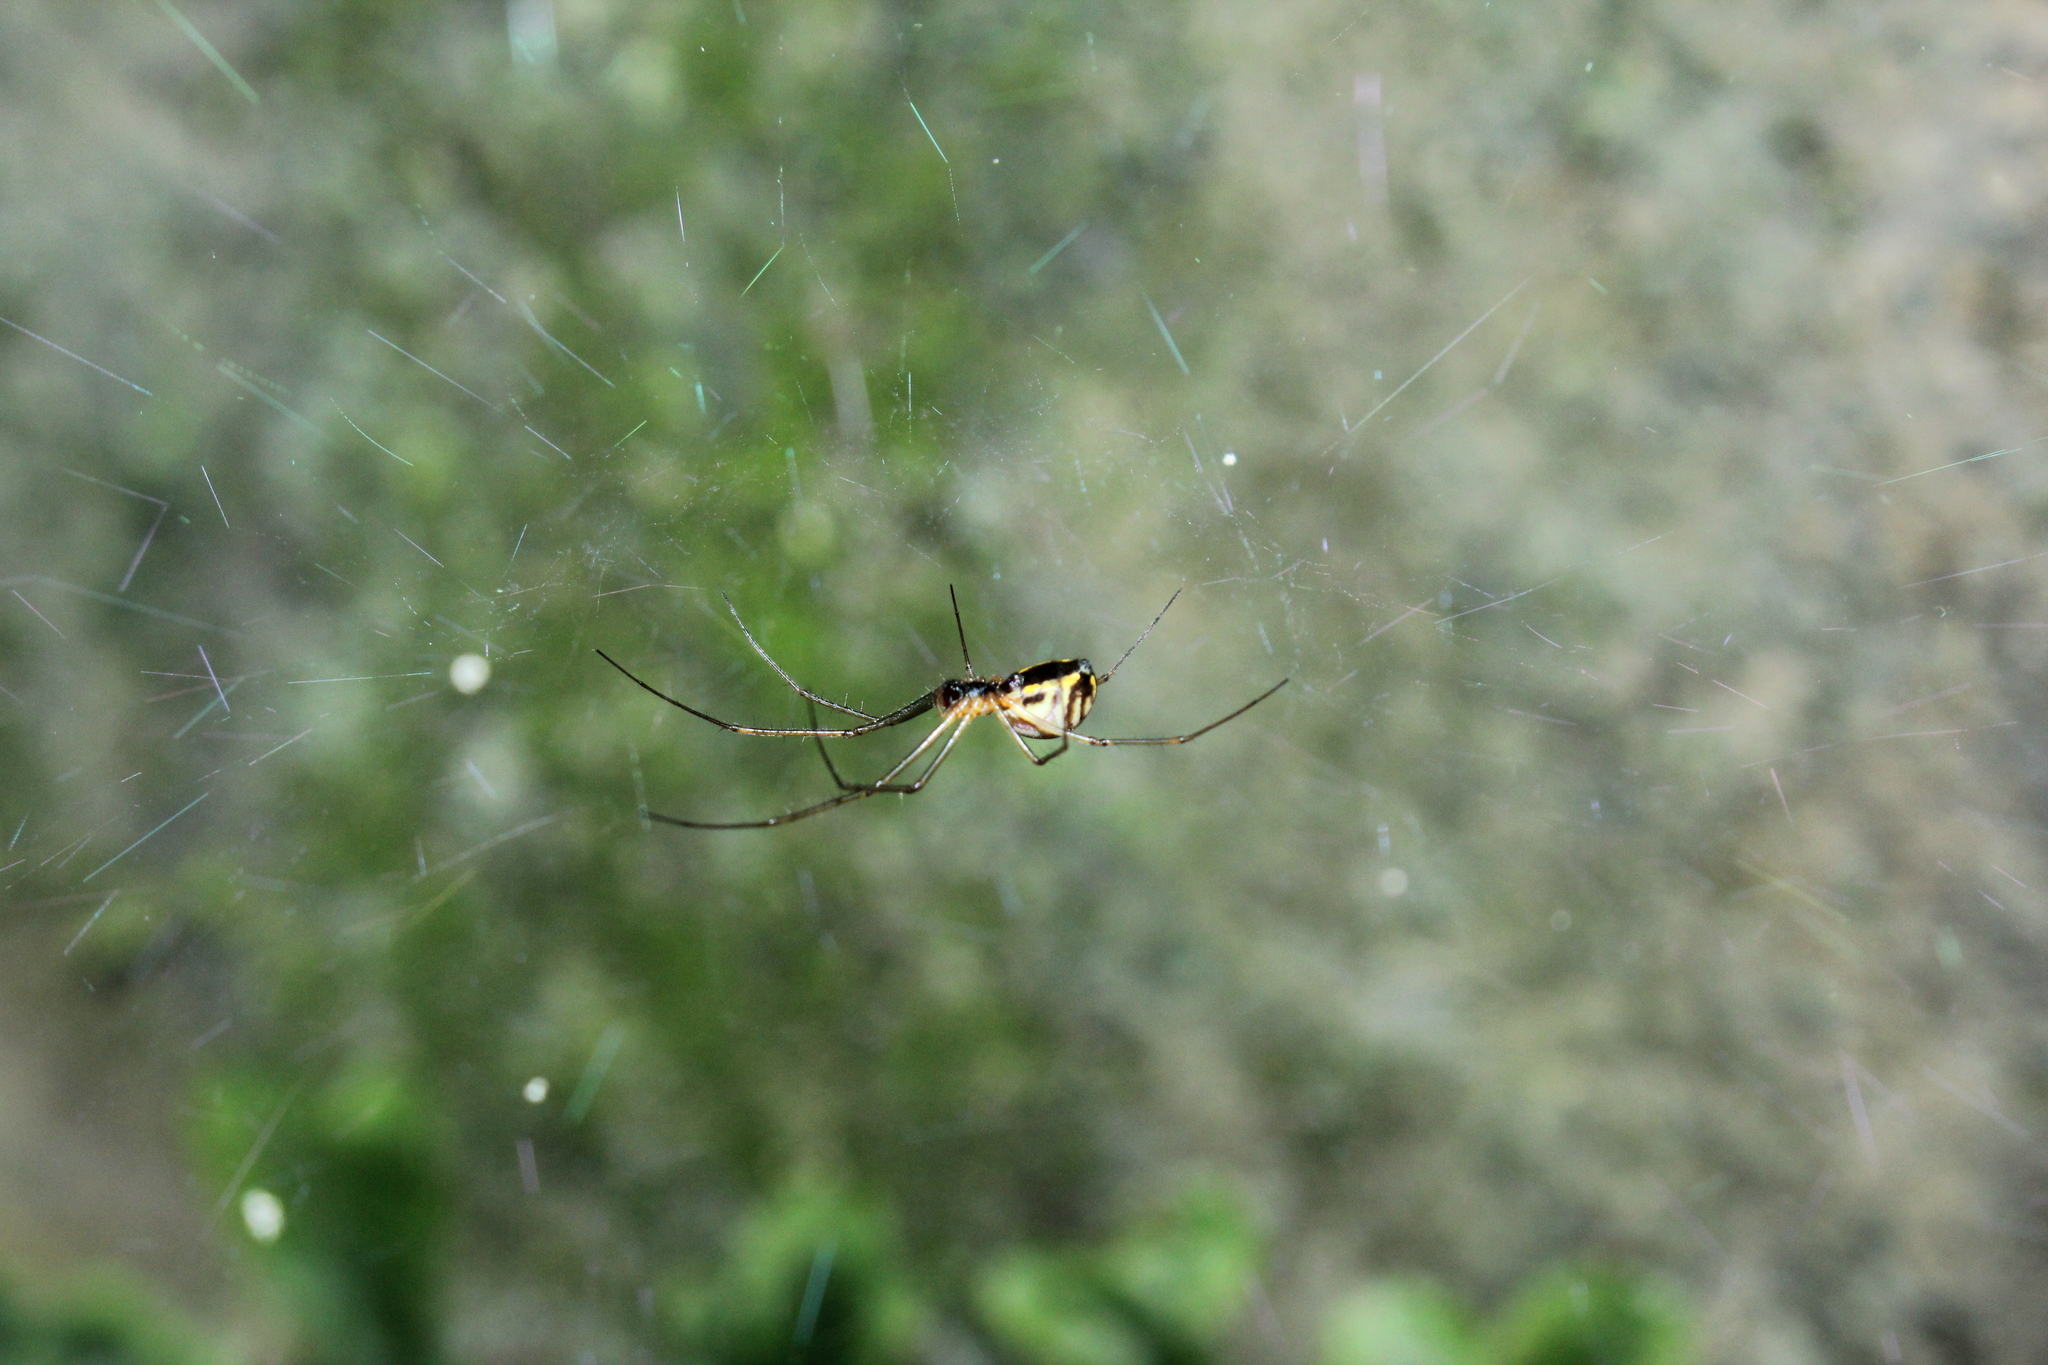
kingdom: Animalia
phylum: Arthropoda
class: Arachnida
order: Araneae
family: Linyphiidae
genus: Neriene
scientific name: Neriene radiata
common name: Filmy dome spider
